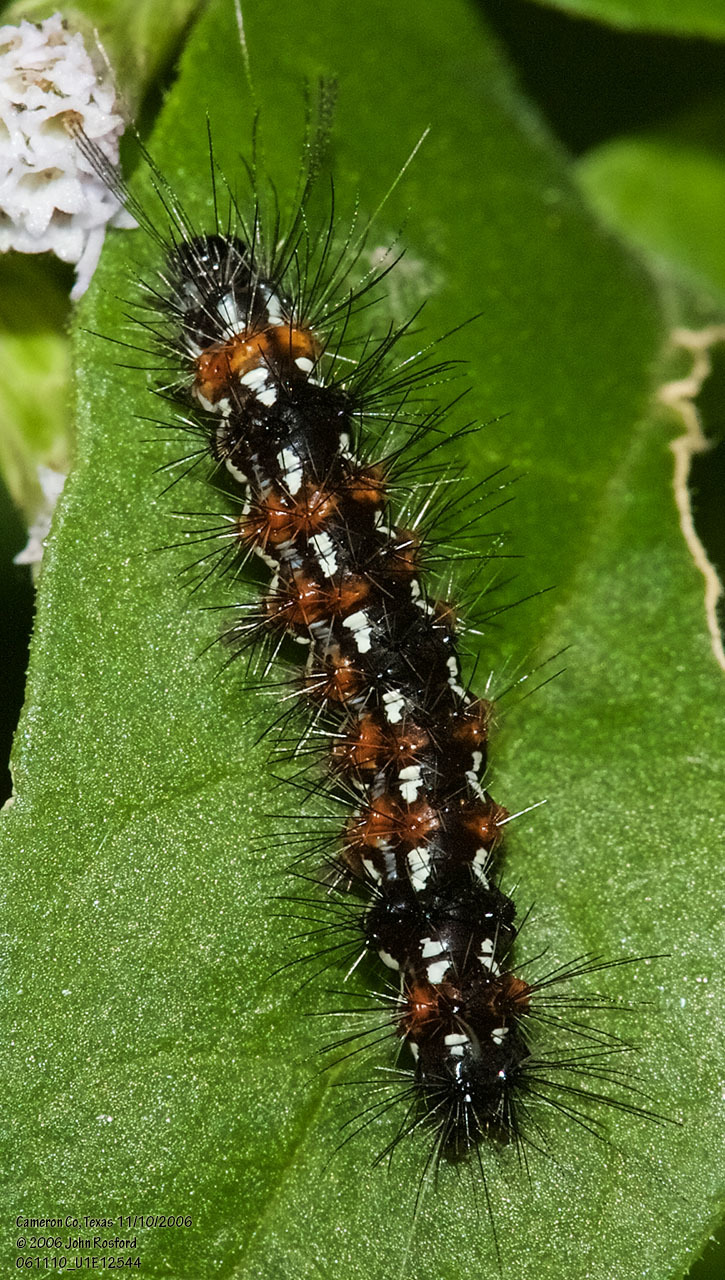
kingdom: Animalia
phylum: Arthropoda
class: Insecta
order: Lepidoptera
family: Erebidae
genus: Pareuchaetes
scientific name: Pareuchaetes insulata
